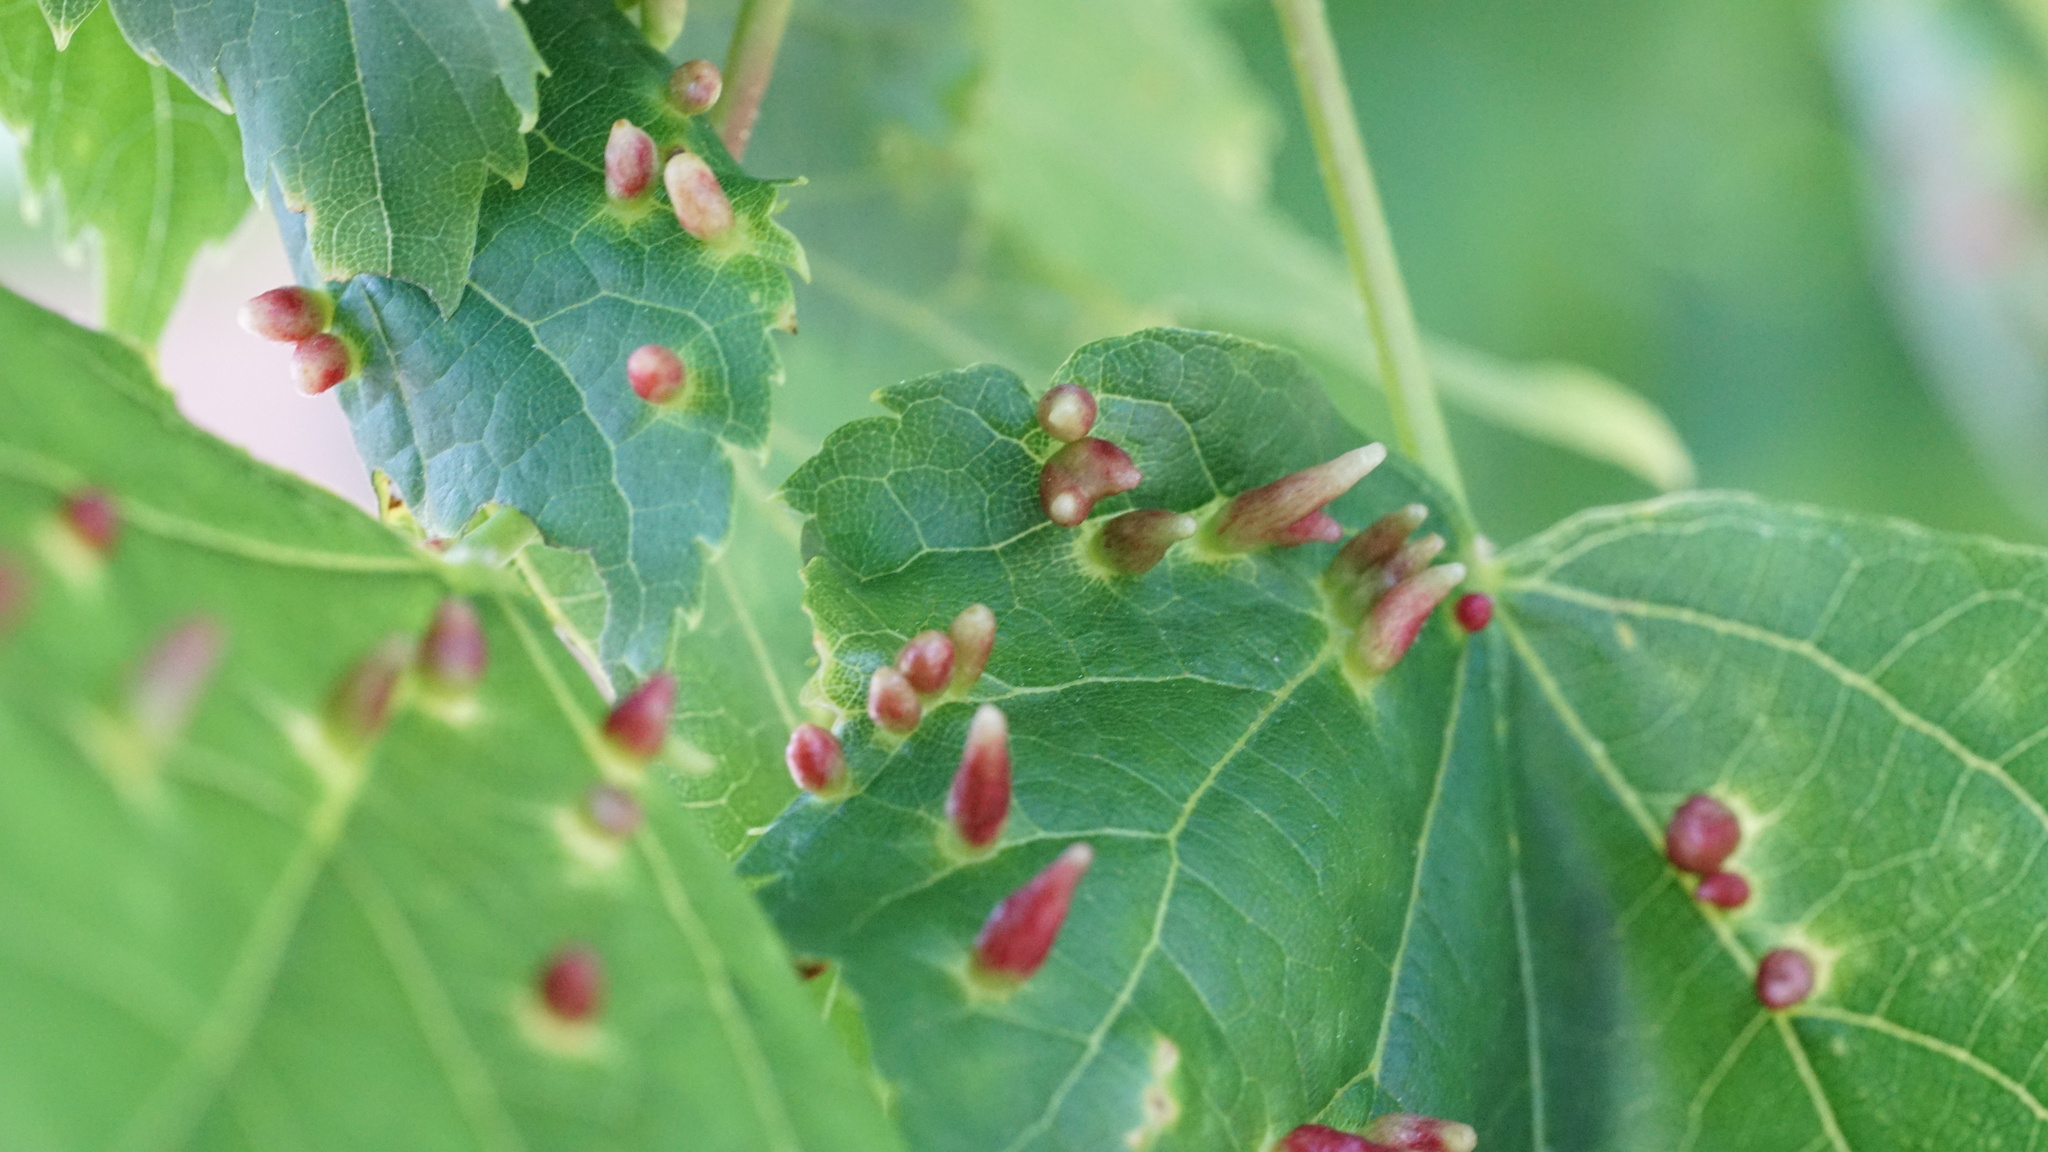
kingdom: Animalia
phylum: Arthropoda
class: Arachnida
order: Trombidiformes
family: Eriophyidae
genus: Eriophyes
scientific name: Eriophyes tiliae
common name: Red nail gall mite
